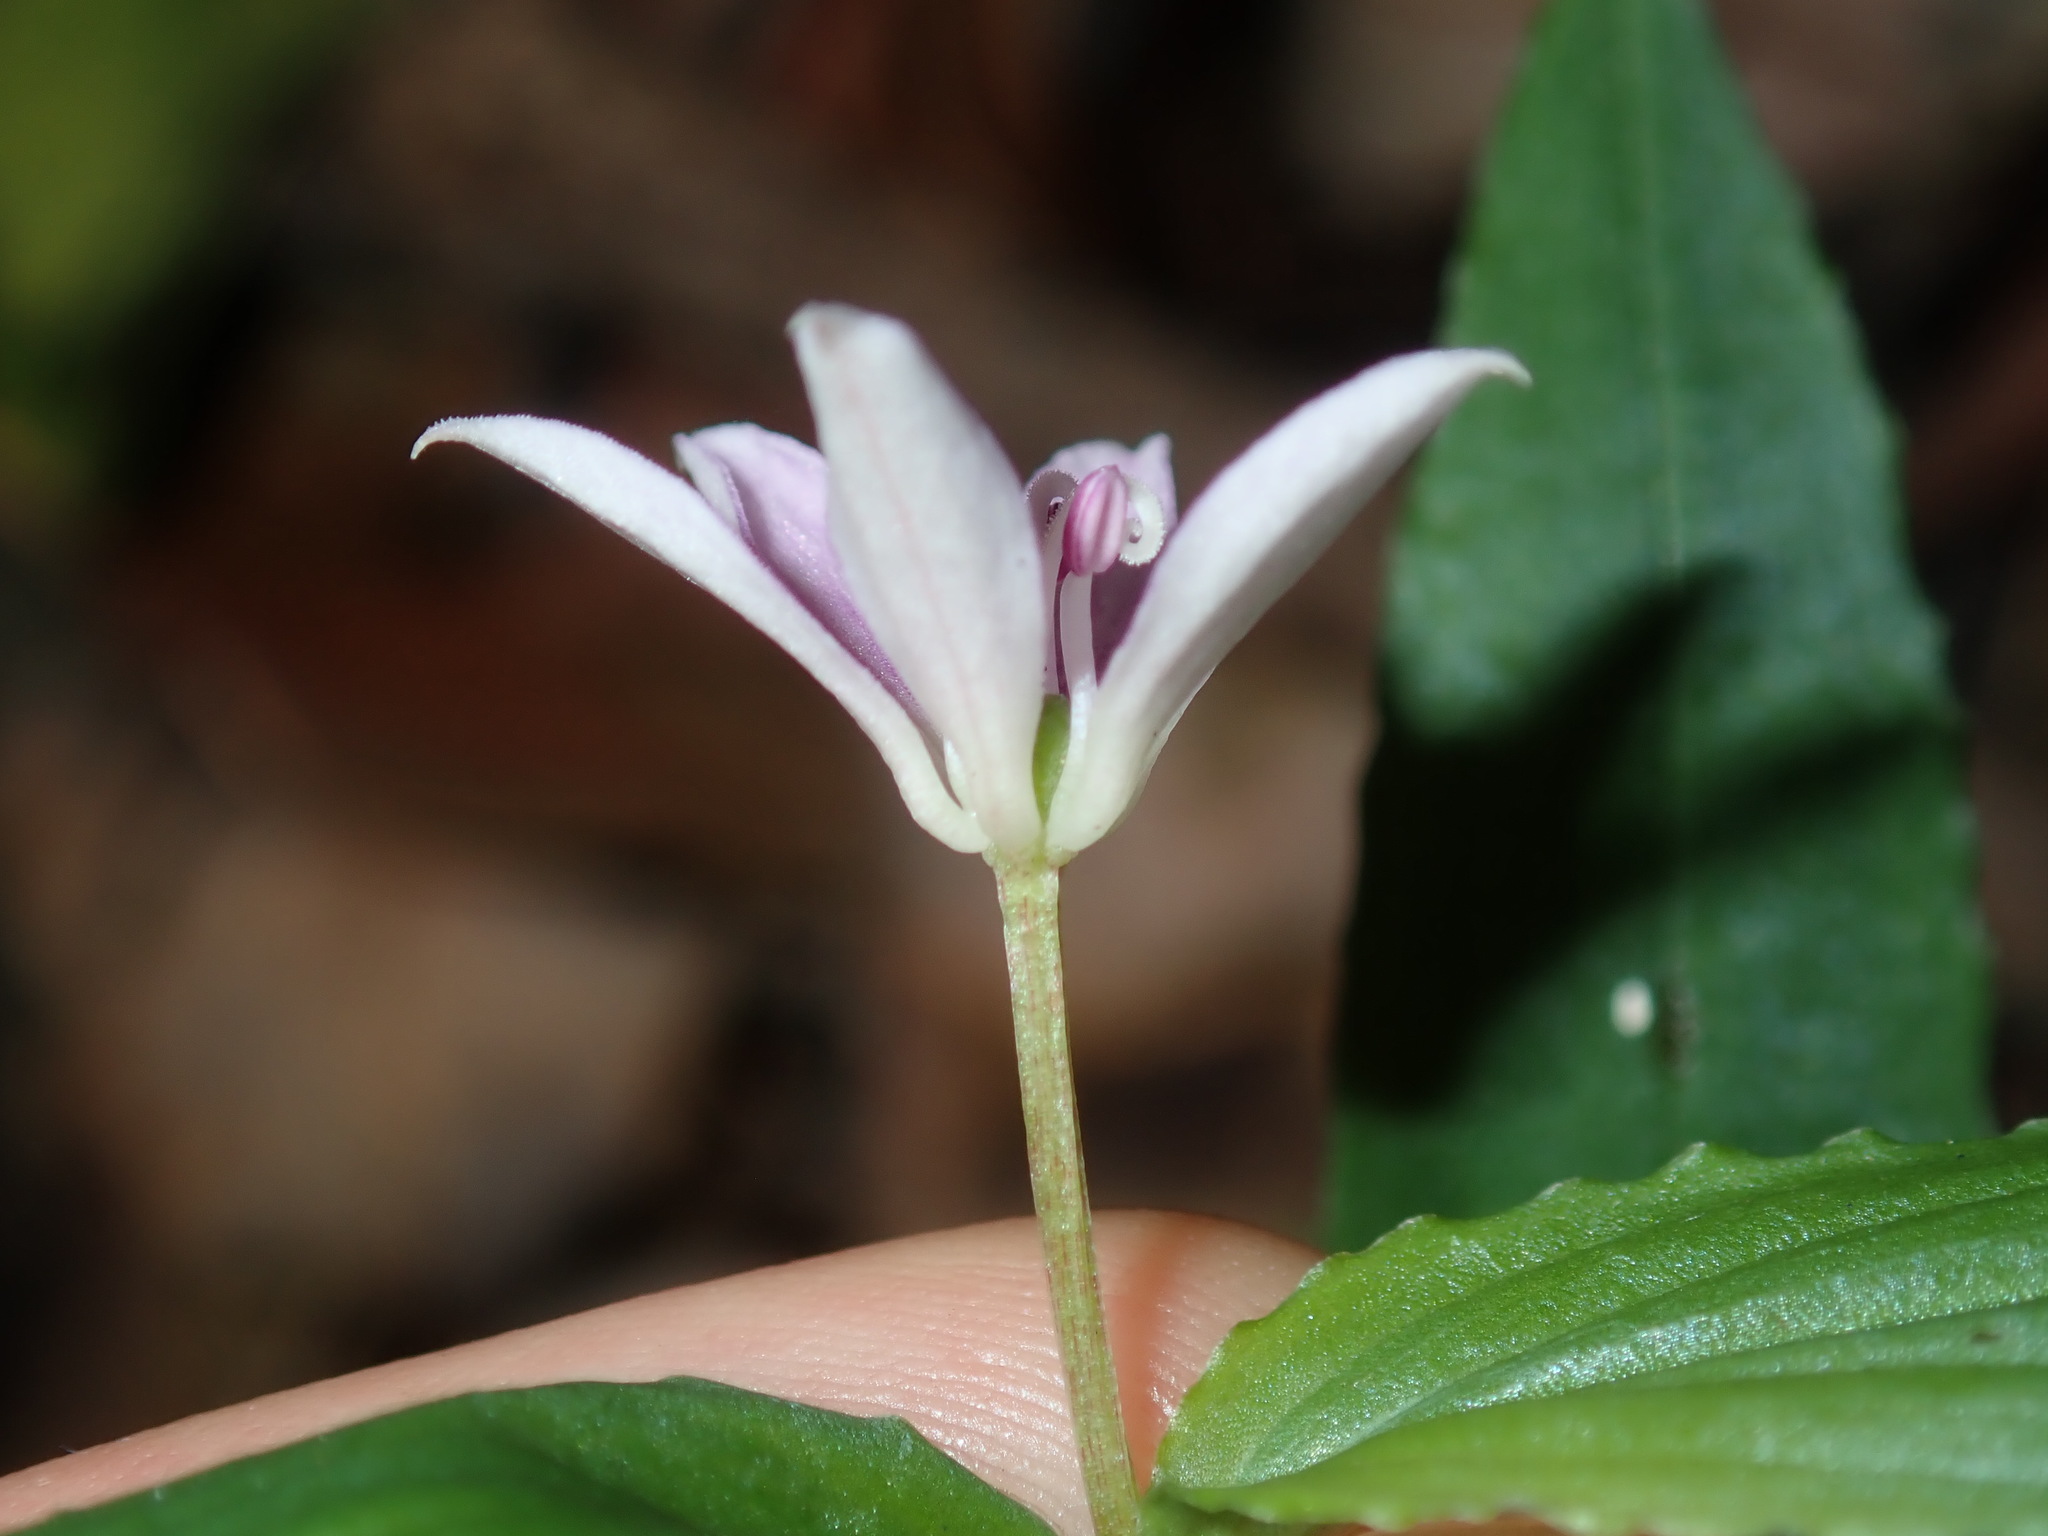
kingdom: Plantae
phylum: Tracheophyta
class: Liliopsida
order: Liliales
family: Colchicaceae
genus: Schelhammera
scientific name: Schelhammera undulata
